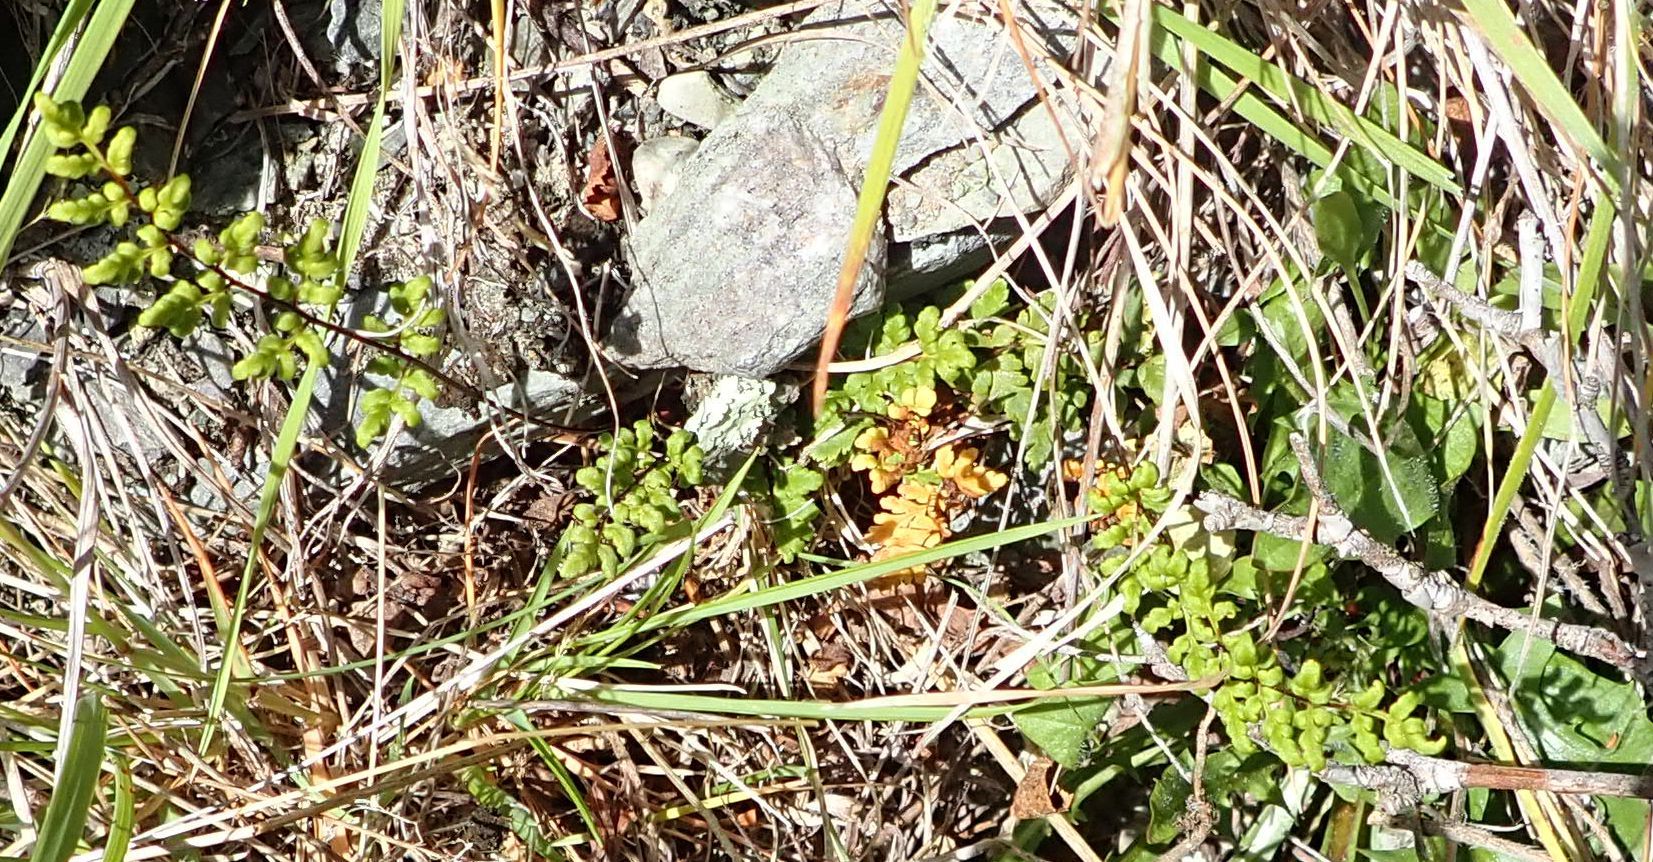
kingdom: Plantae
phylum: Tracheophyta
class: Polypodiopsida
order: Polypodiales
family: Pteridaceae
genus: Cheilanthes
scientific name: Cheilanthes sieberi
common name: Mulga fern
